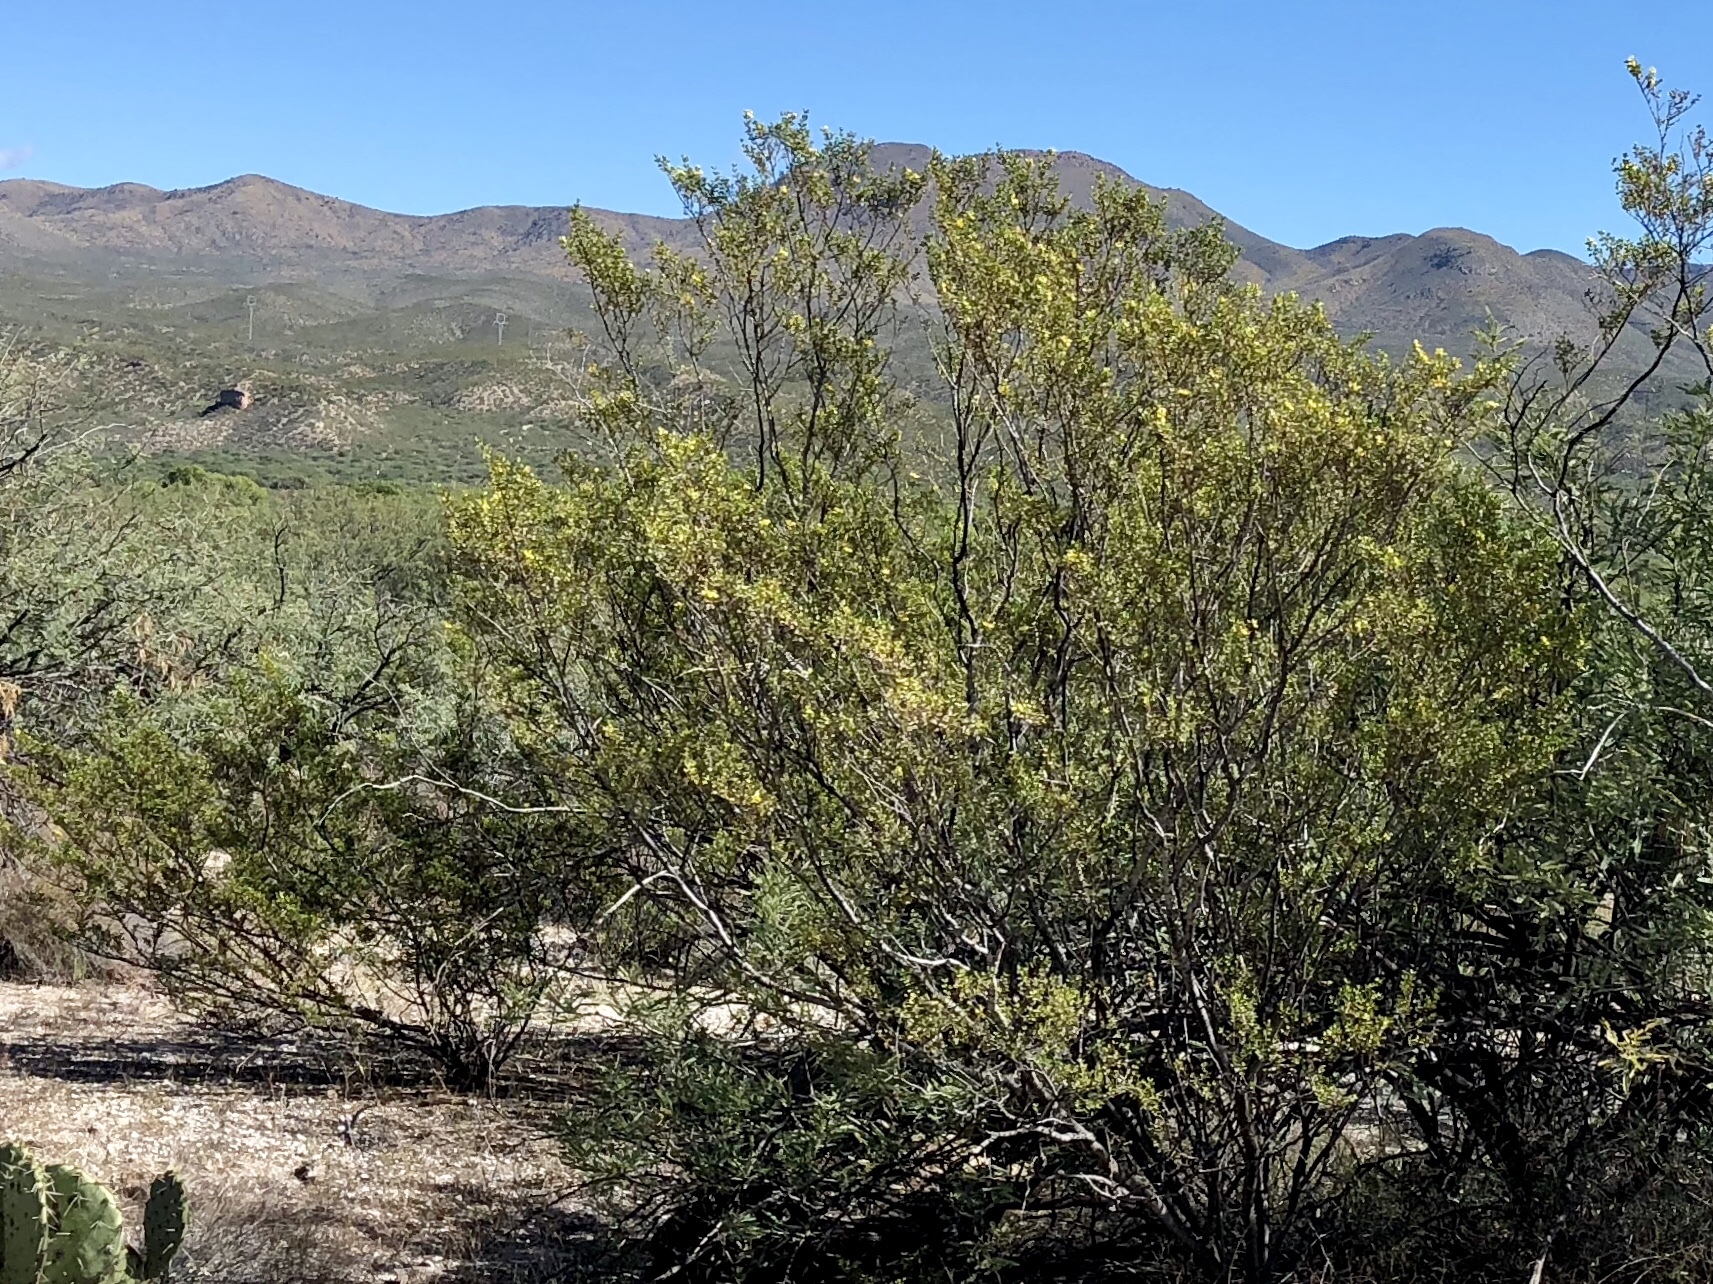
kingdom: Plantae
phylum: Tracheophyta
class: Magnoliopsida
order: Zygophyllales
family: Zygophyllaceae
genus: Larrea
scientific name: Larrea tridentata
